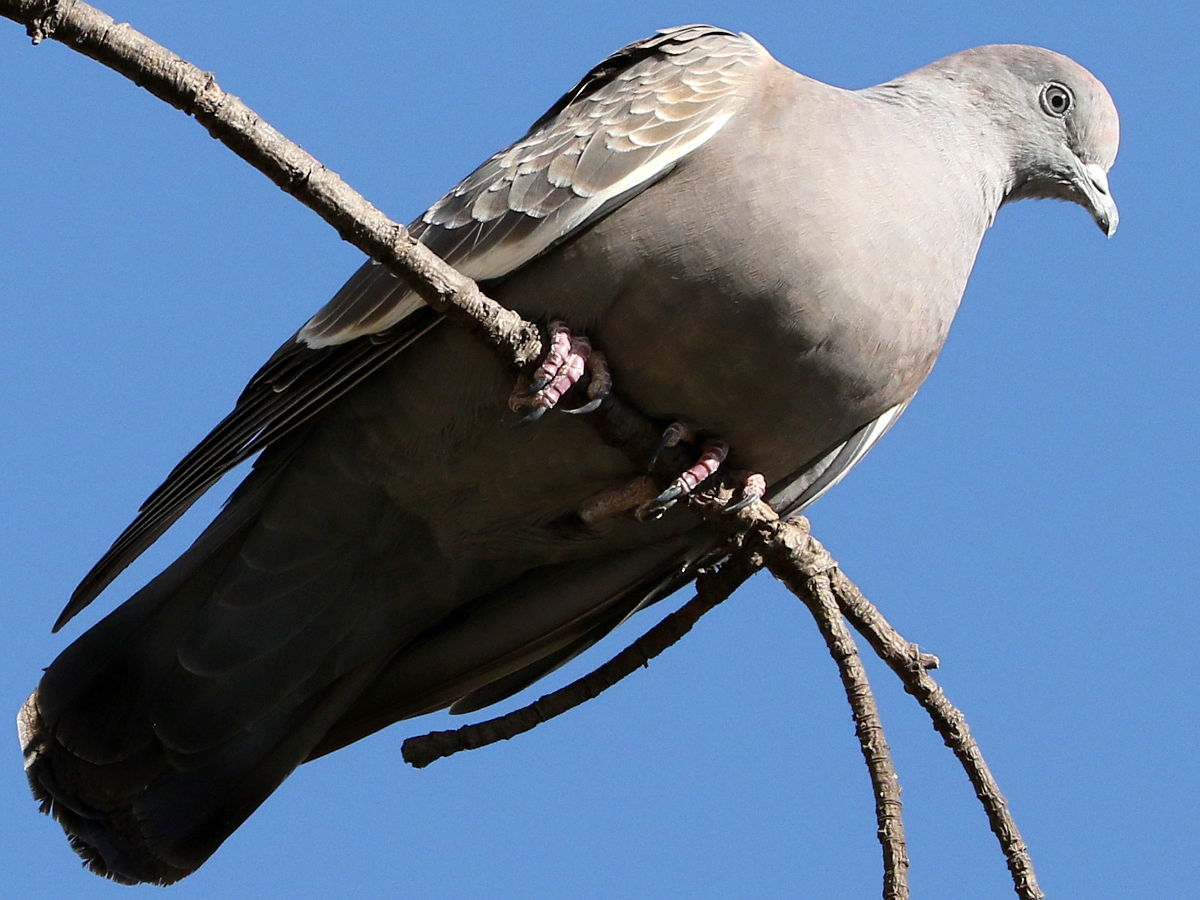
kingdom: Animalia
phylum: Chordata
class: Aves
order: Columbiformes
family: Columbidae
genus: Patagioenas
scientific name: Patagioenas maculosa
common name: Spot-winged pigeon
